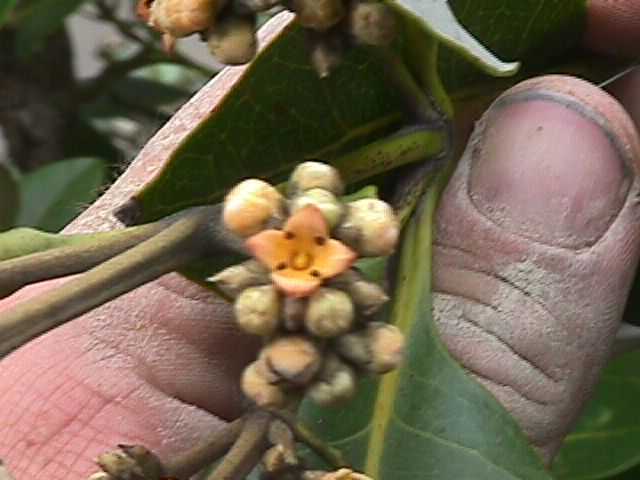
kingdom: Plantae
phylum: Tracheophyta
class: Magnoliopsida
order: Lamiales
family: Acanthaceae
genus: Avicennia
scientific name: Avicennia marina
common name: Gray mangrove
